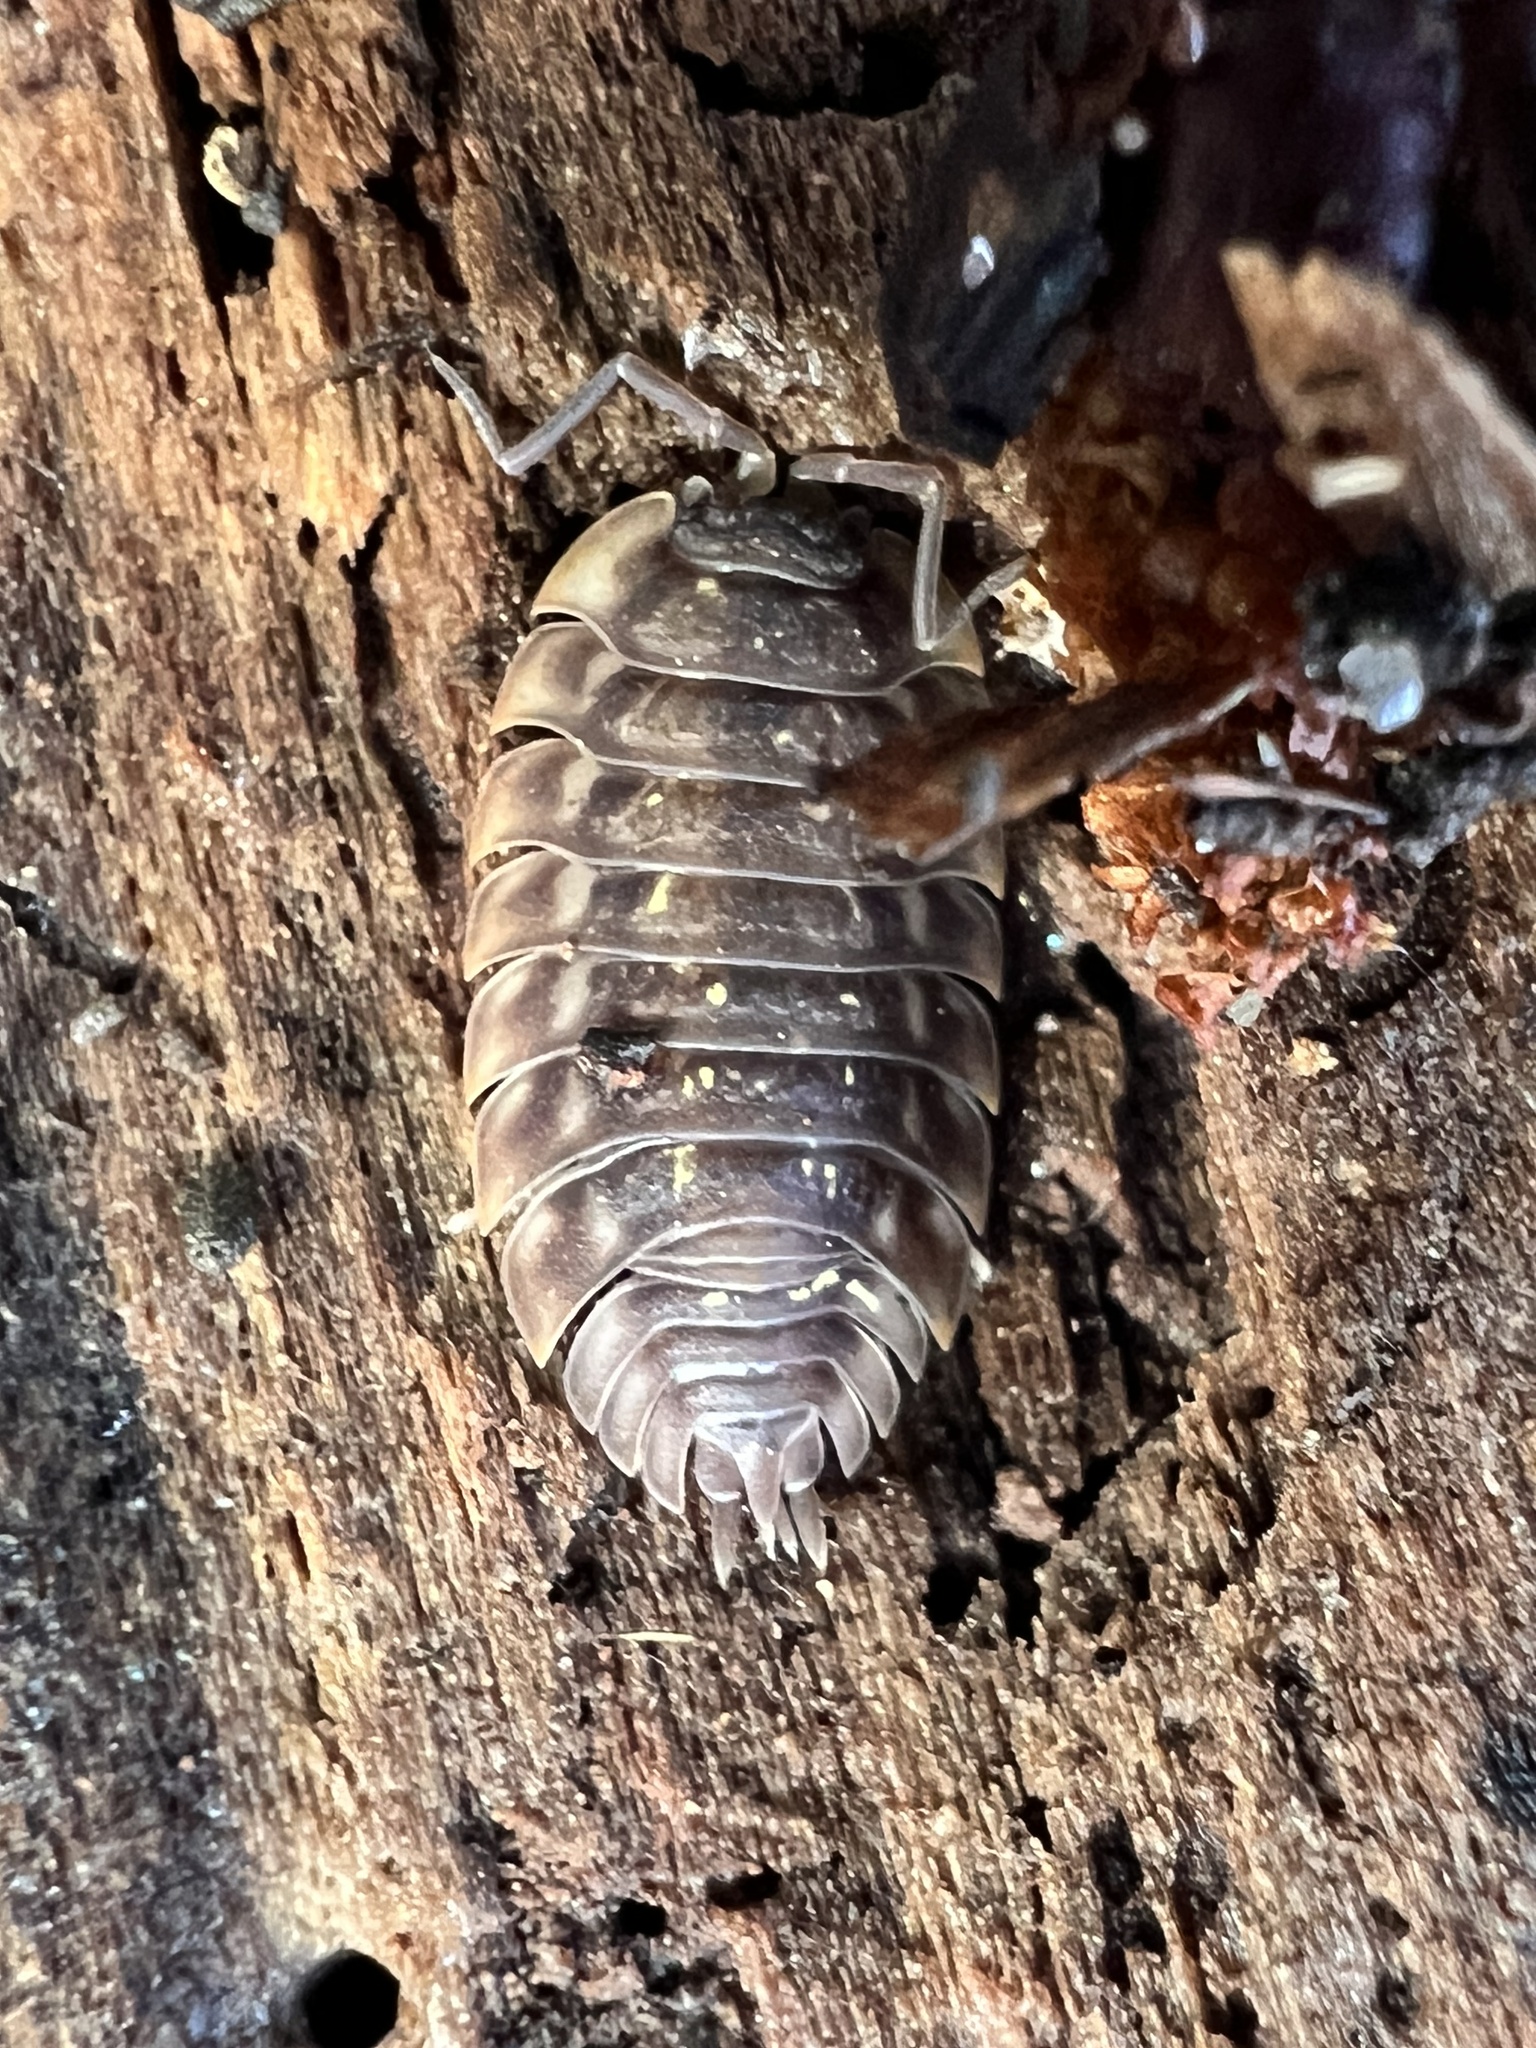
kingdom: Animalia
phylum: Arthropoda
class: Malacostraca
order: Isopoda
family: Oniscidae
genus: Oniscus
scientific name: Oniscus asellus
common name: Common shiny woodlouse
